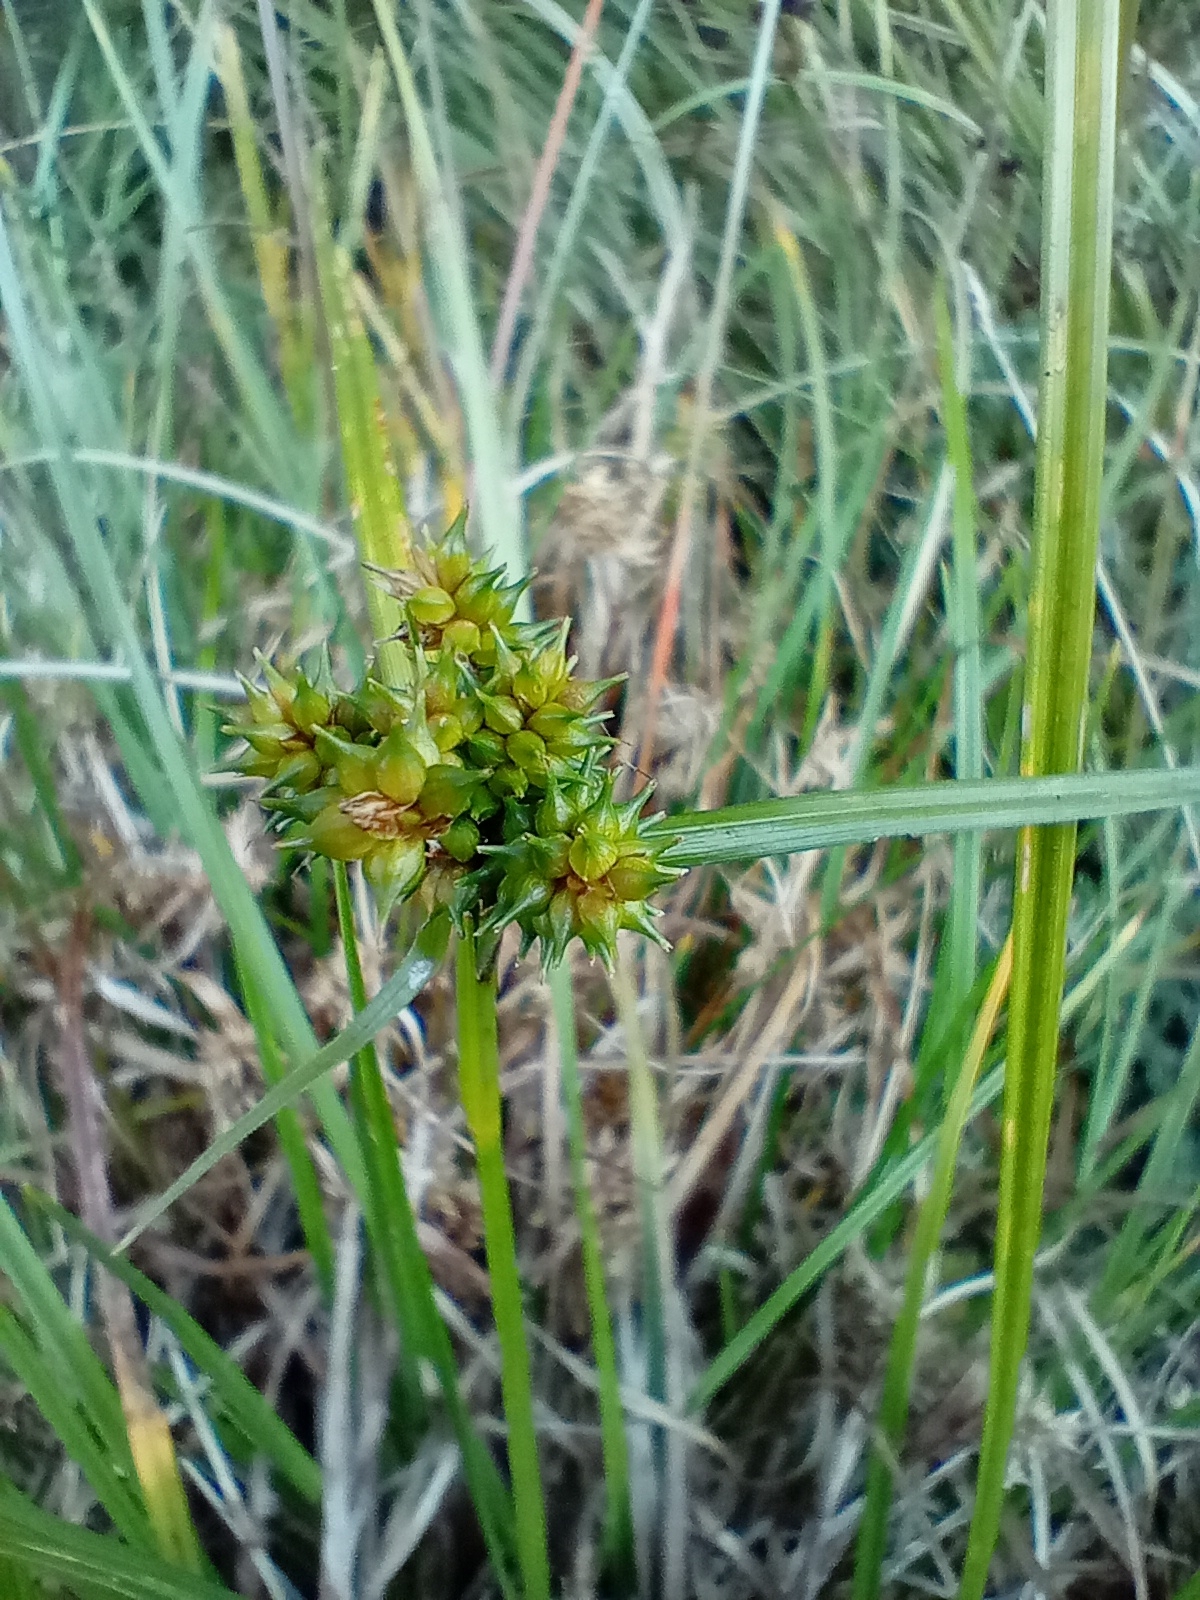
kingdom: Plantae
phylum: Tracheophyta
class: Liliopsida
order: Poales
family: Cyperaceae
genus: Carex
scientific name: Carex demissa
